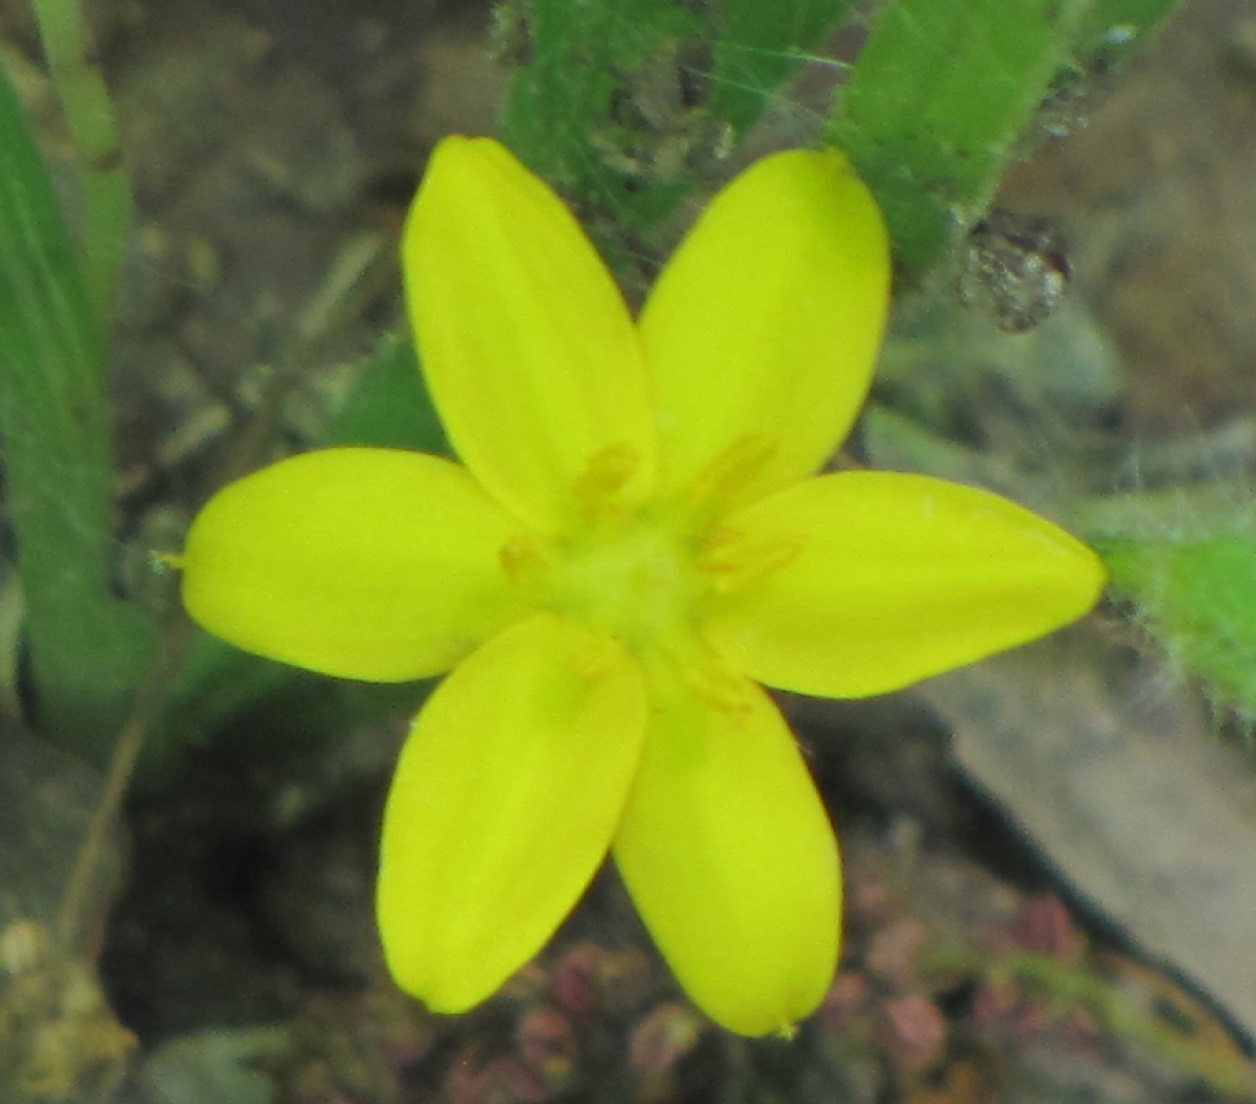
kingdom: Plantae
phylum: Tracheophyta
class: Liliopsida
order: Asparagales
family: Hypoxidaceae
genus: Hypoxis
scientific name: Hypoxis hirsuta
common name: Common goldstar
